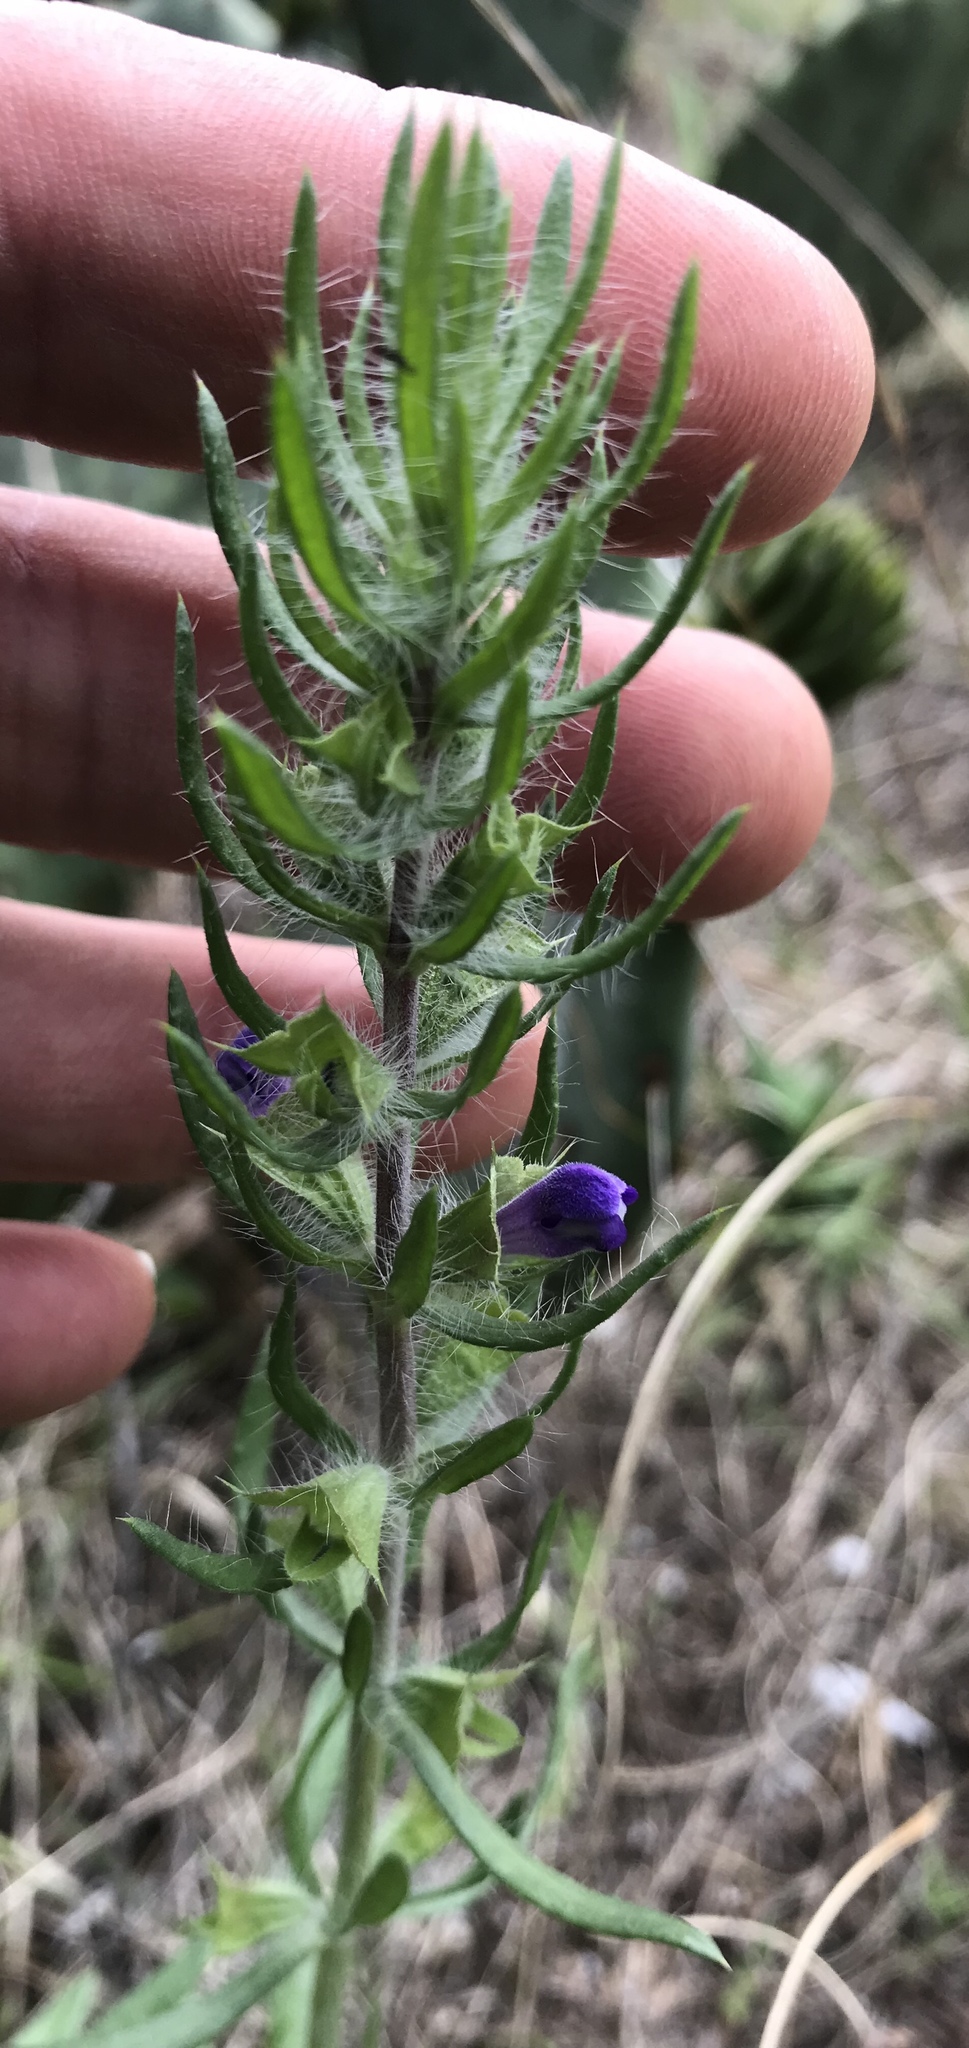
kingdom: Plantae
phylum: Tracheophyta
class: Magnoliopsida
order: Lamiales
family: Lamiaceae
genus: Salvia
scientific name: Salvia texana
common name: Texas sage
